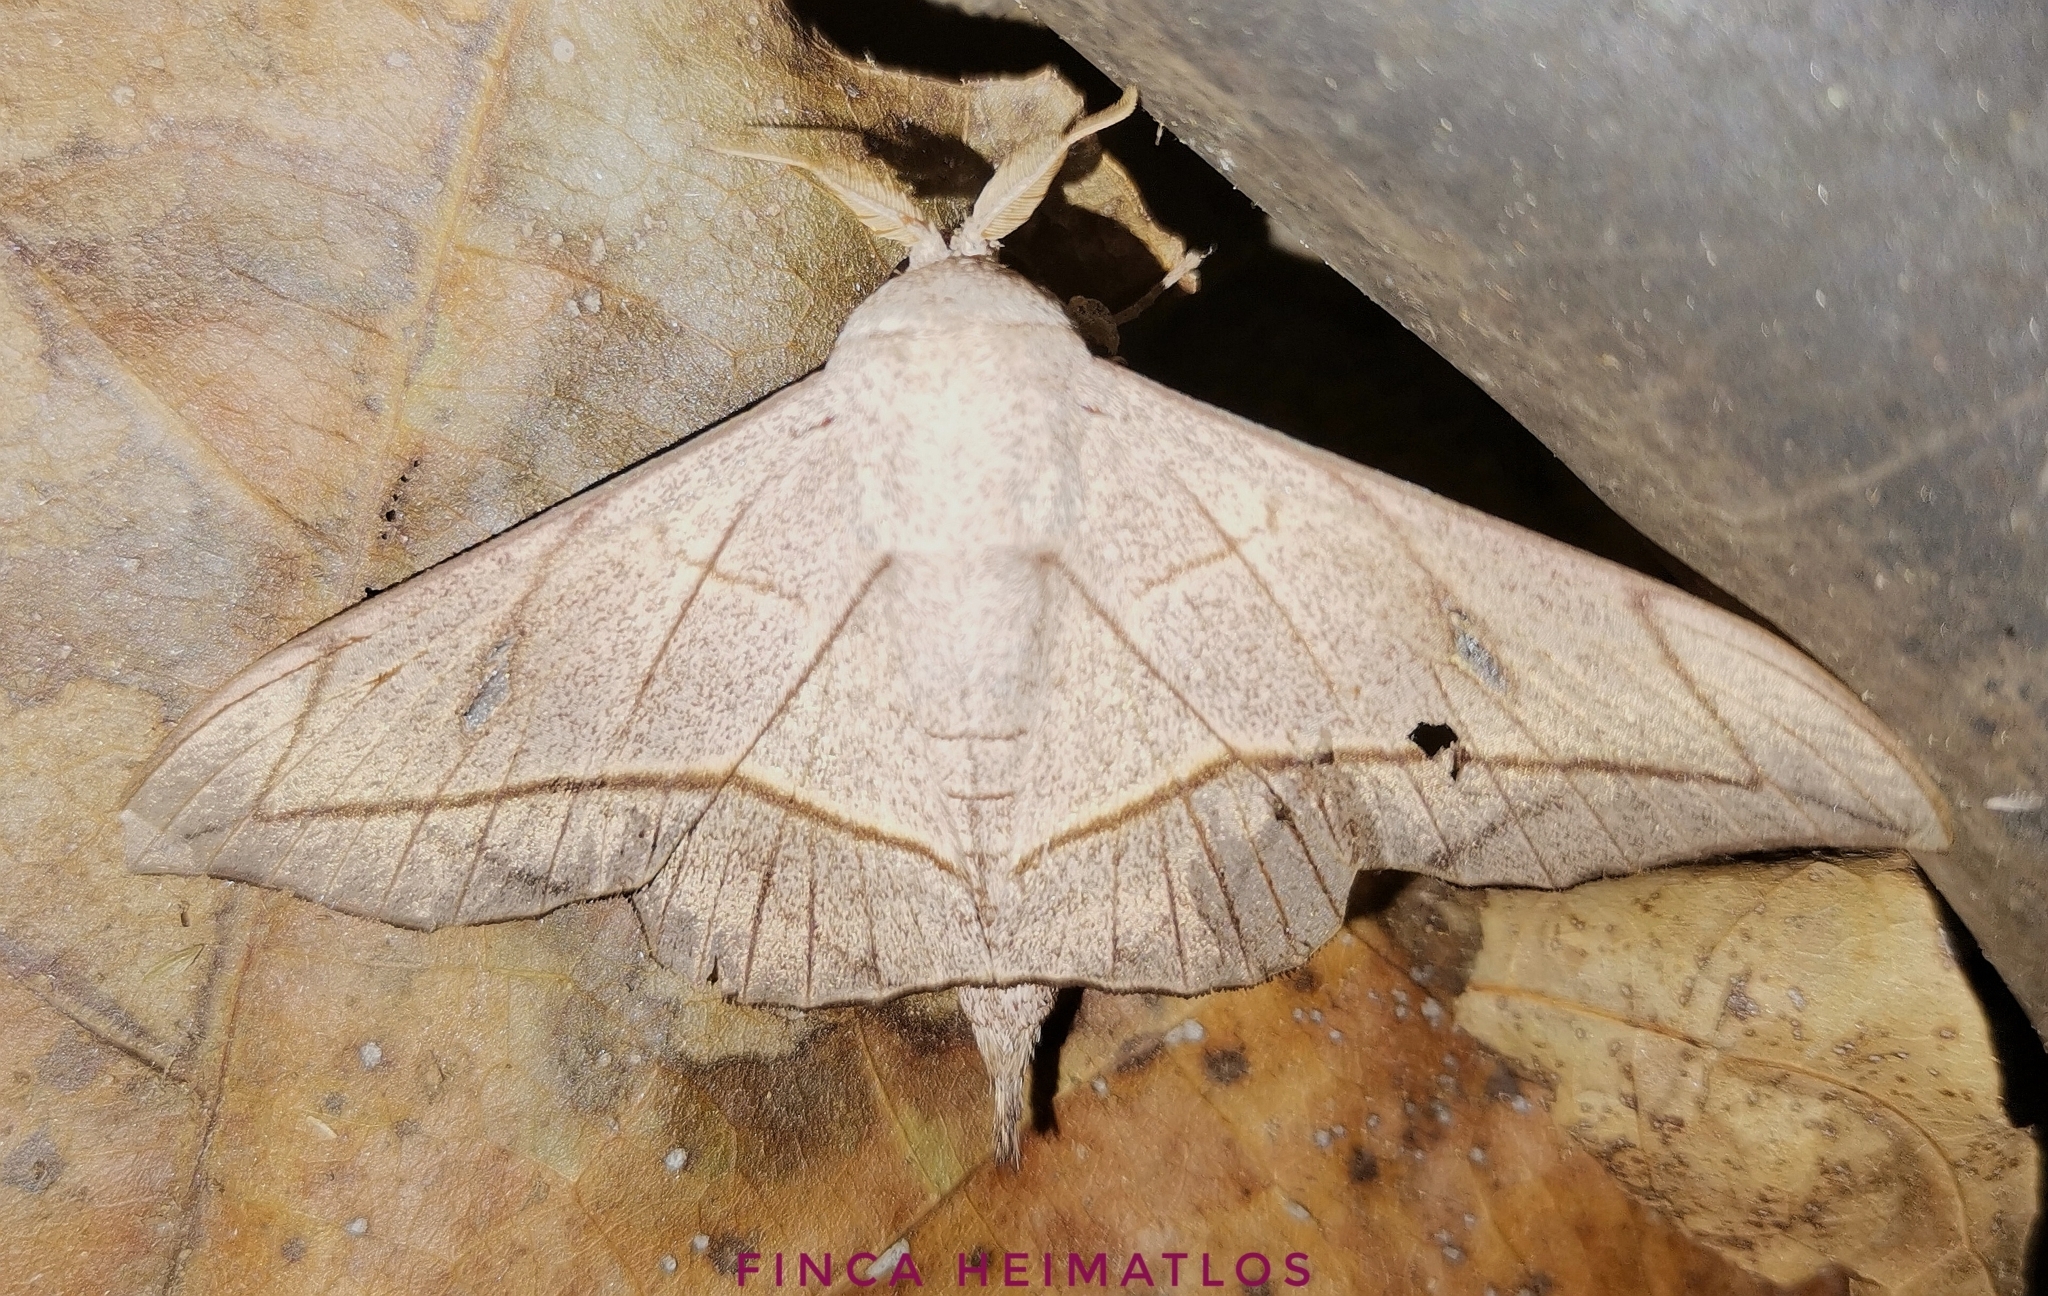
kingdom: Animalia
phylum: Arthropoda
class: Insecta
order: Lepidoptera
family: Mimallonidae
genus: Bedosia
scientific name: Bedosia fraterna
